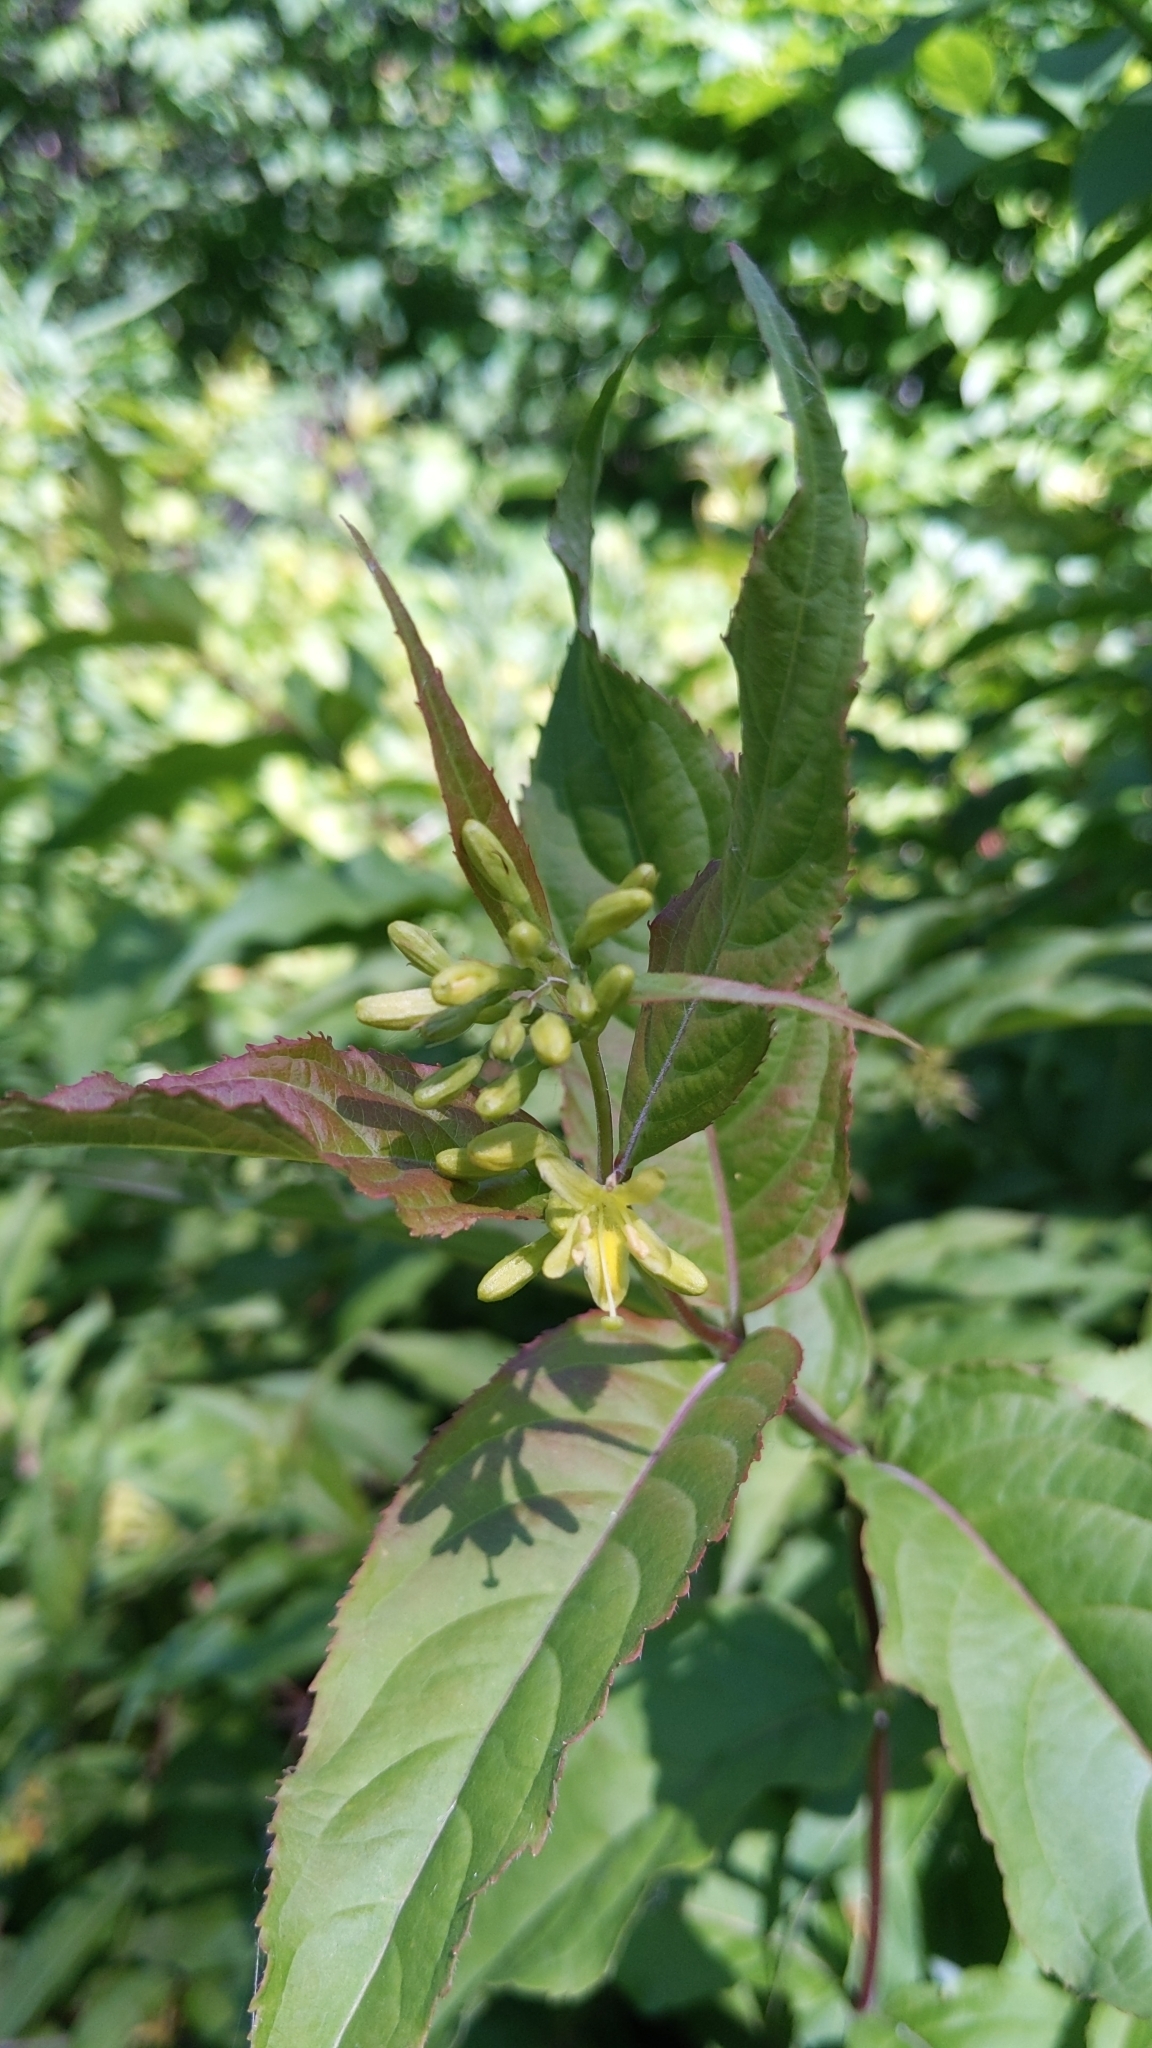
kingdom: Plantae
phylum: Tracheophyta
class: Magnoliopsida
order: Dipsacales
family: Caprifoliaceae
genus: Diervilla
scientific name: Diervilla lonicera
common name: Bush-honeysuckle
